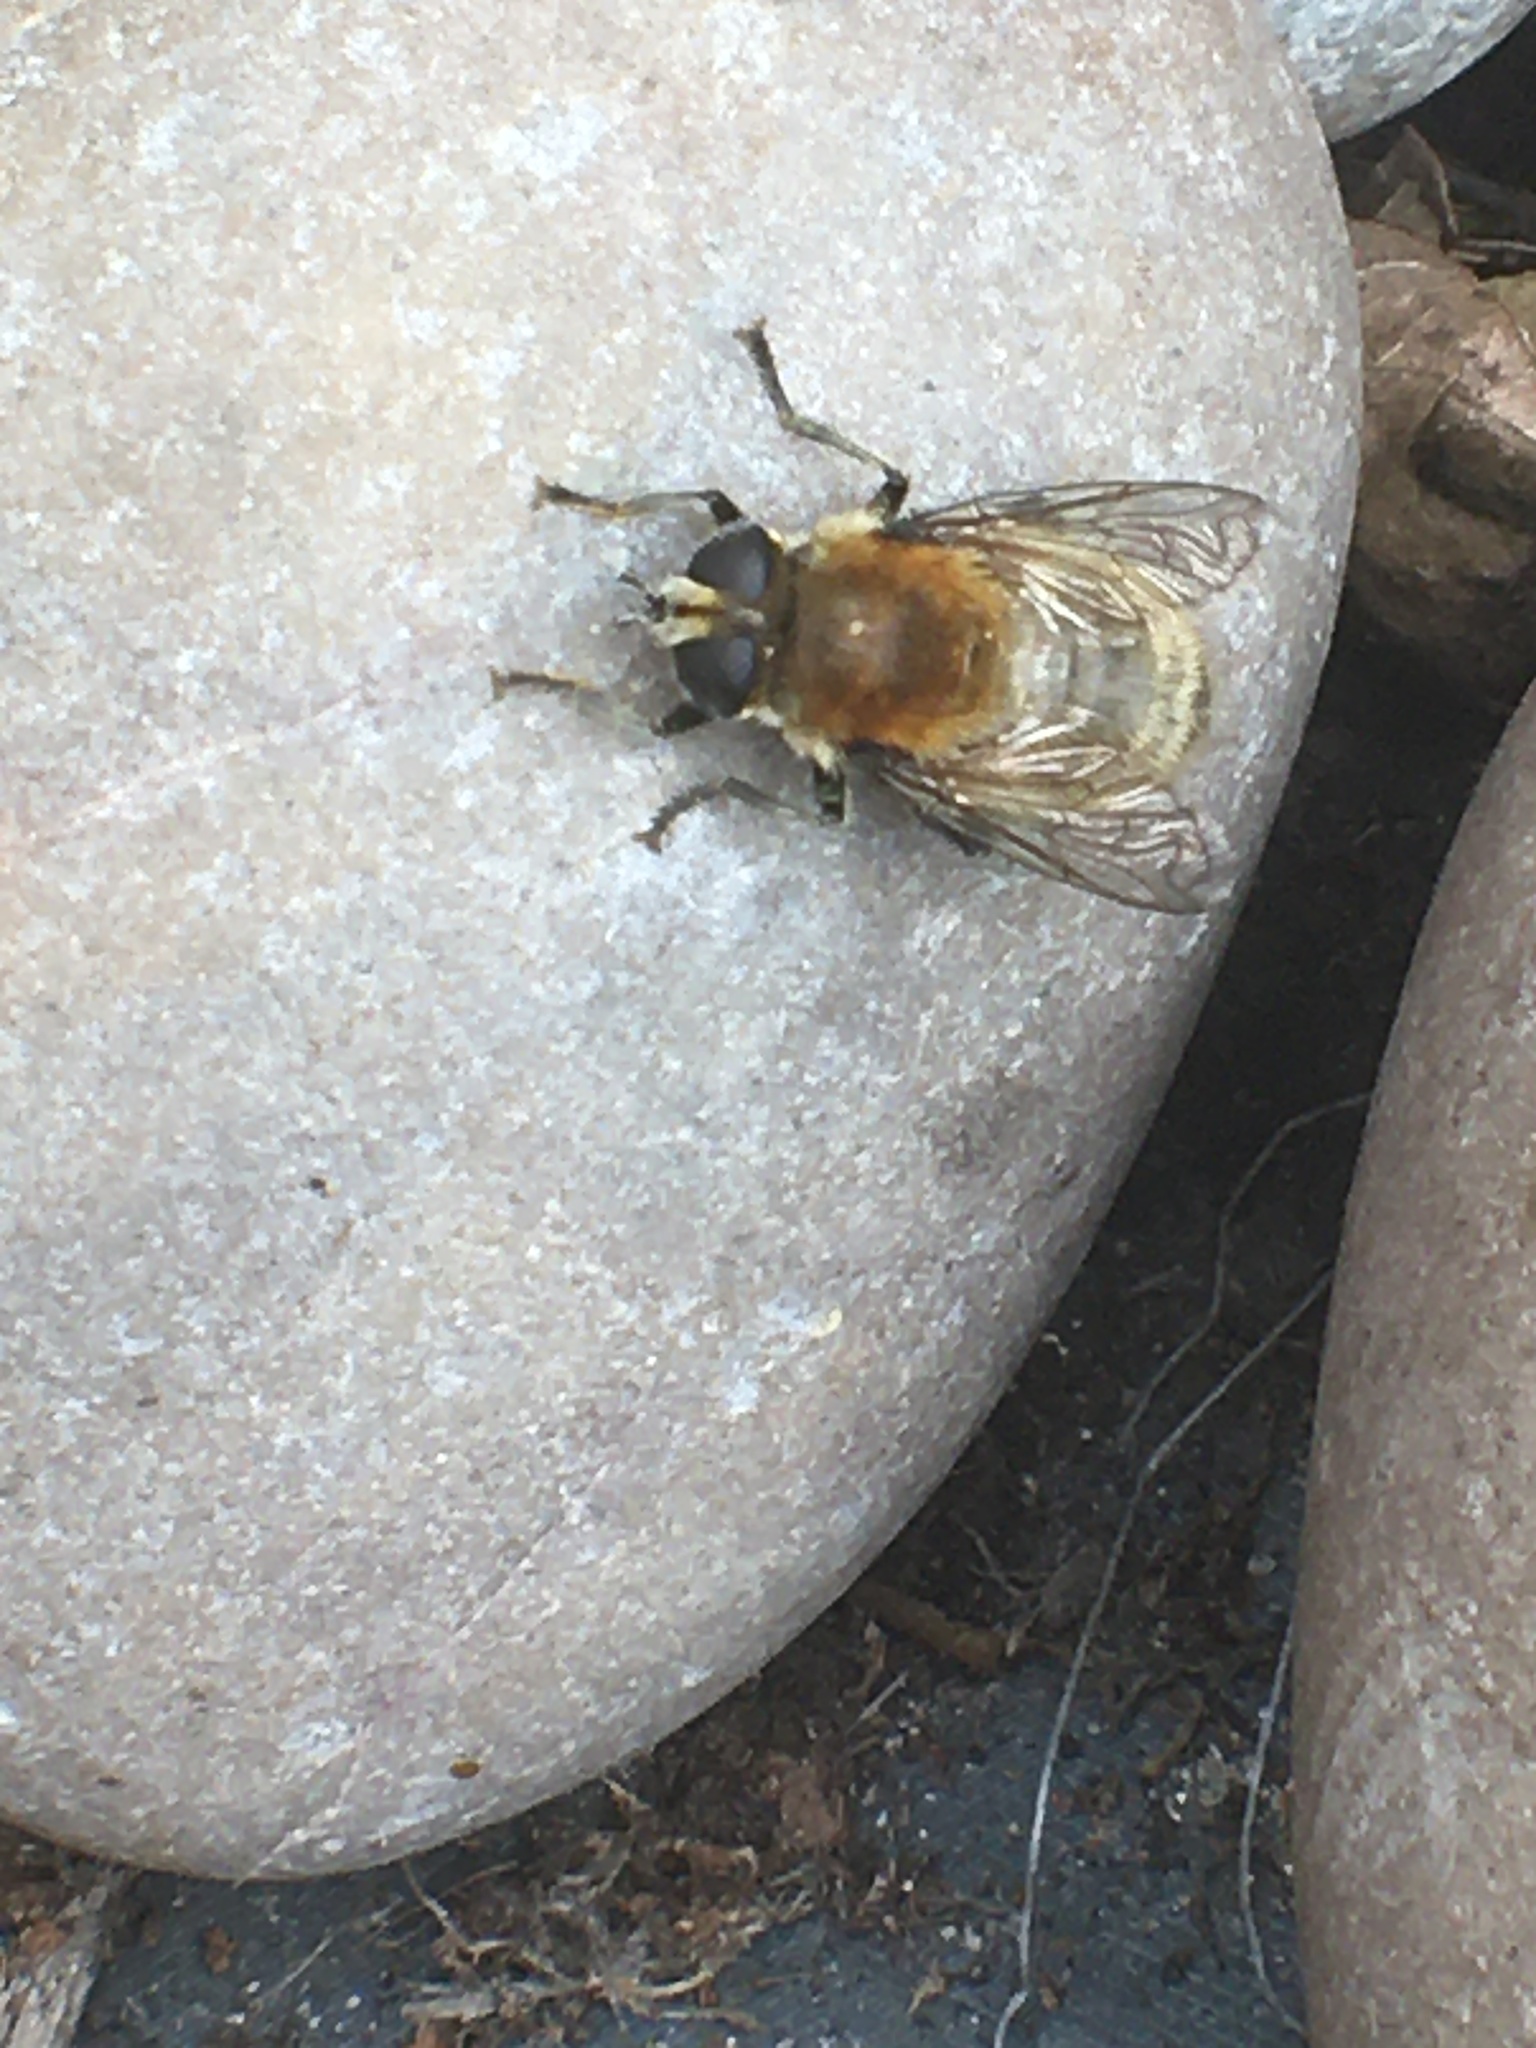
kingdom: Animalia
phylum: Arthropoda
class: Insecta
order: Diptera
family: Syrphidae
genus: Merodon
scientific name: Merodon equestris
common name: Greater bulb-fly
